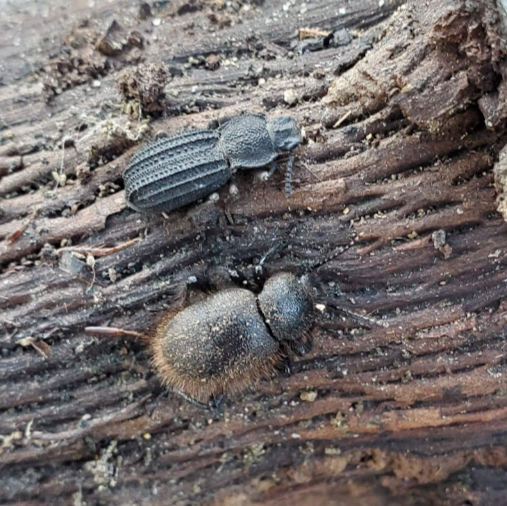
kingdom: Animalia
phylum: Arthropoda
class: Insecta
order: Coleoptera
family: Tenebrionidae
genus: Nyctoporis
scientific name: Nyctoporis carinata
